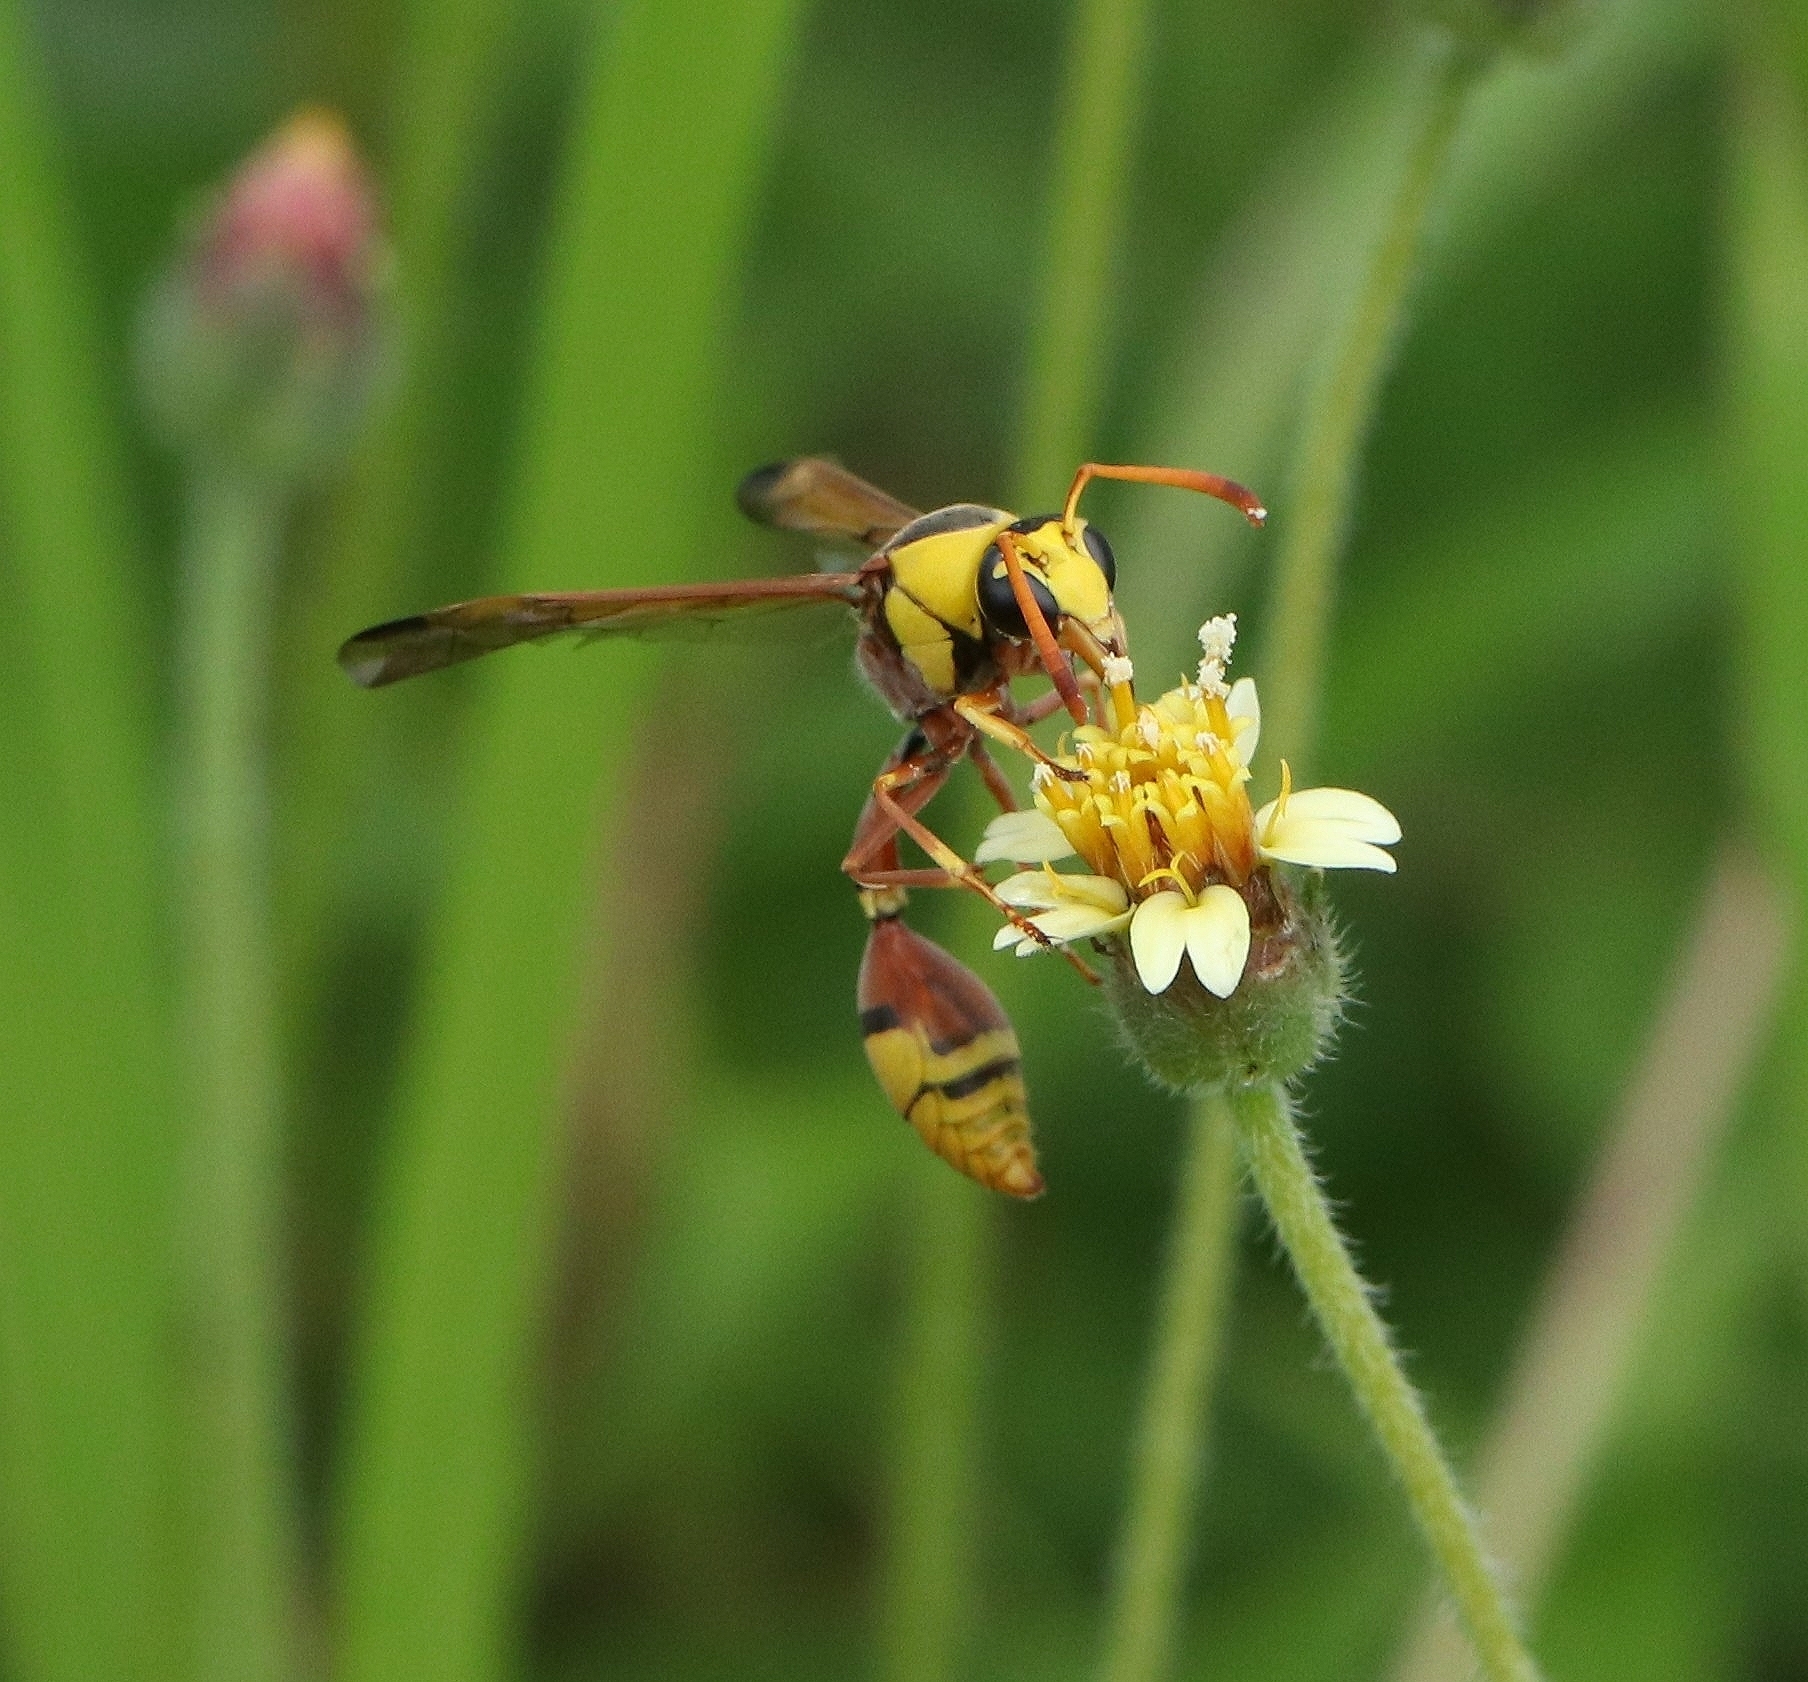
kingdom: Animalia
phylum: Arthropoda
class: Insecta
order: Hymenoptera
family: Eumenidae
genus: Delta
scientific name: Delta esuriens
